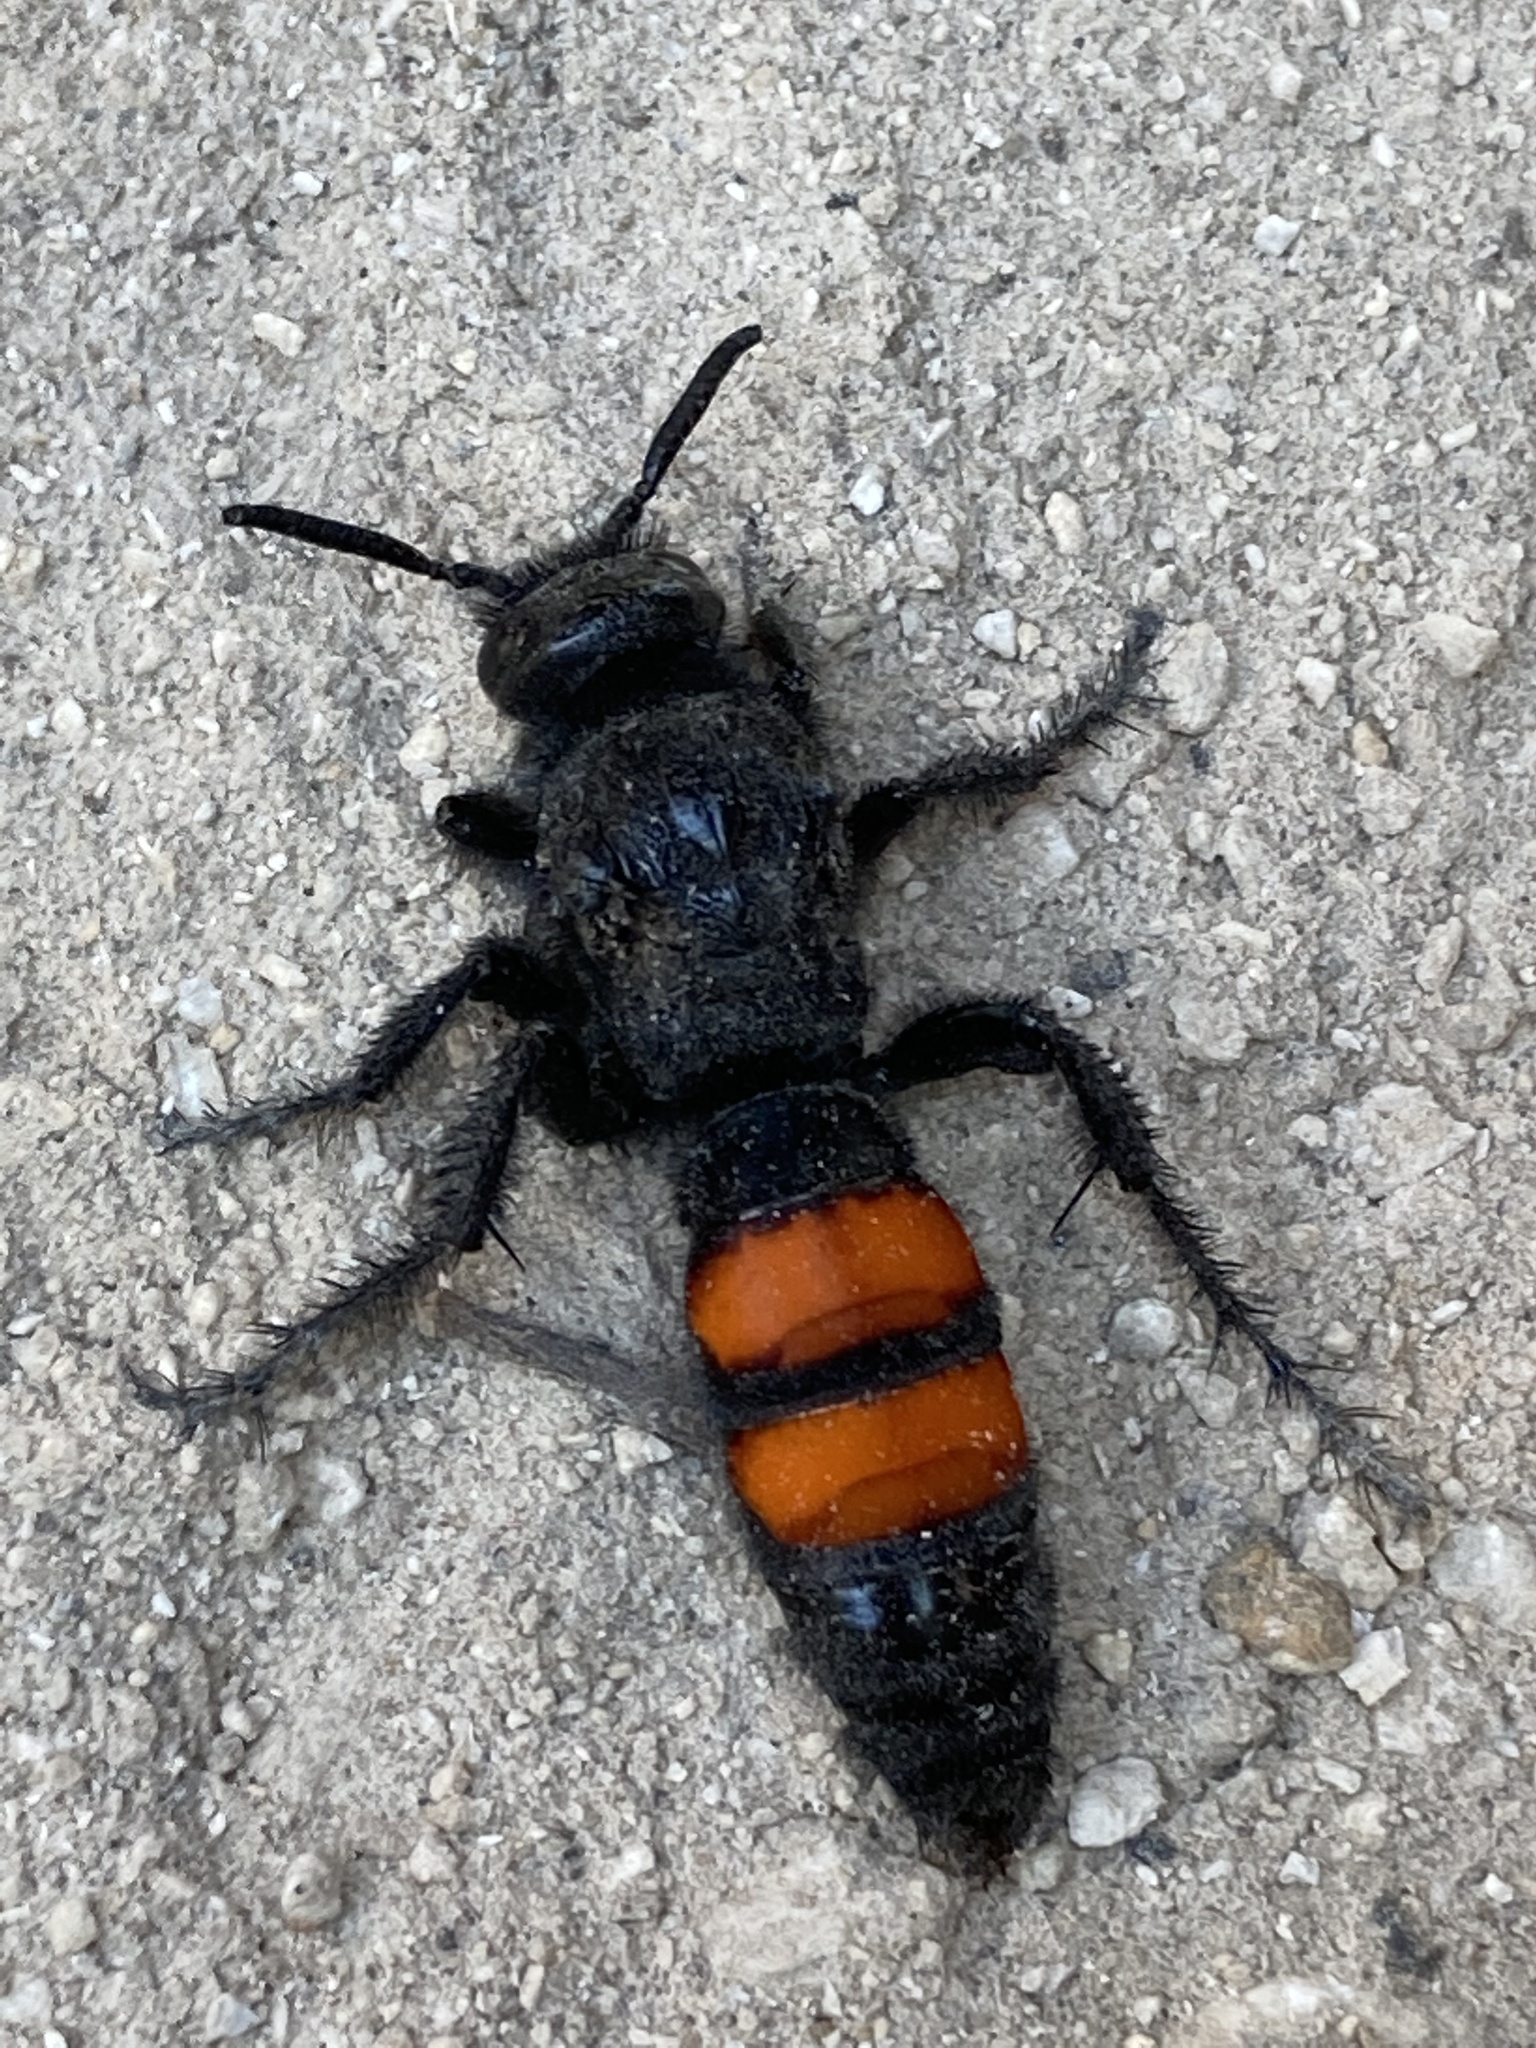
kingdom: Animalia
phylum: Arthropoda
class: Insecta
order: Hymenoptera
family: Scoliidae
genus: Pygodasis
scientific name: Pygodasis ephippium
